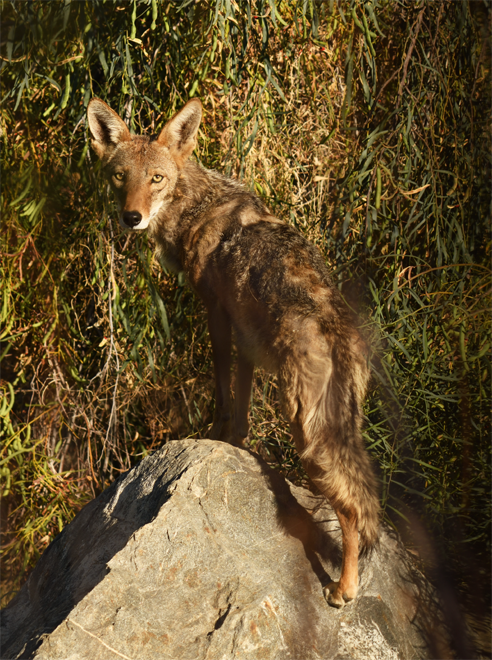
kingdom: Animalia
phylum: Chordata
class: Mammalia
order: Carnivora
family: Canidae
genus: Canis
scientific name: Canis latrans
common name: Coyote
